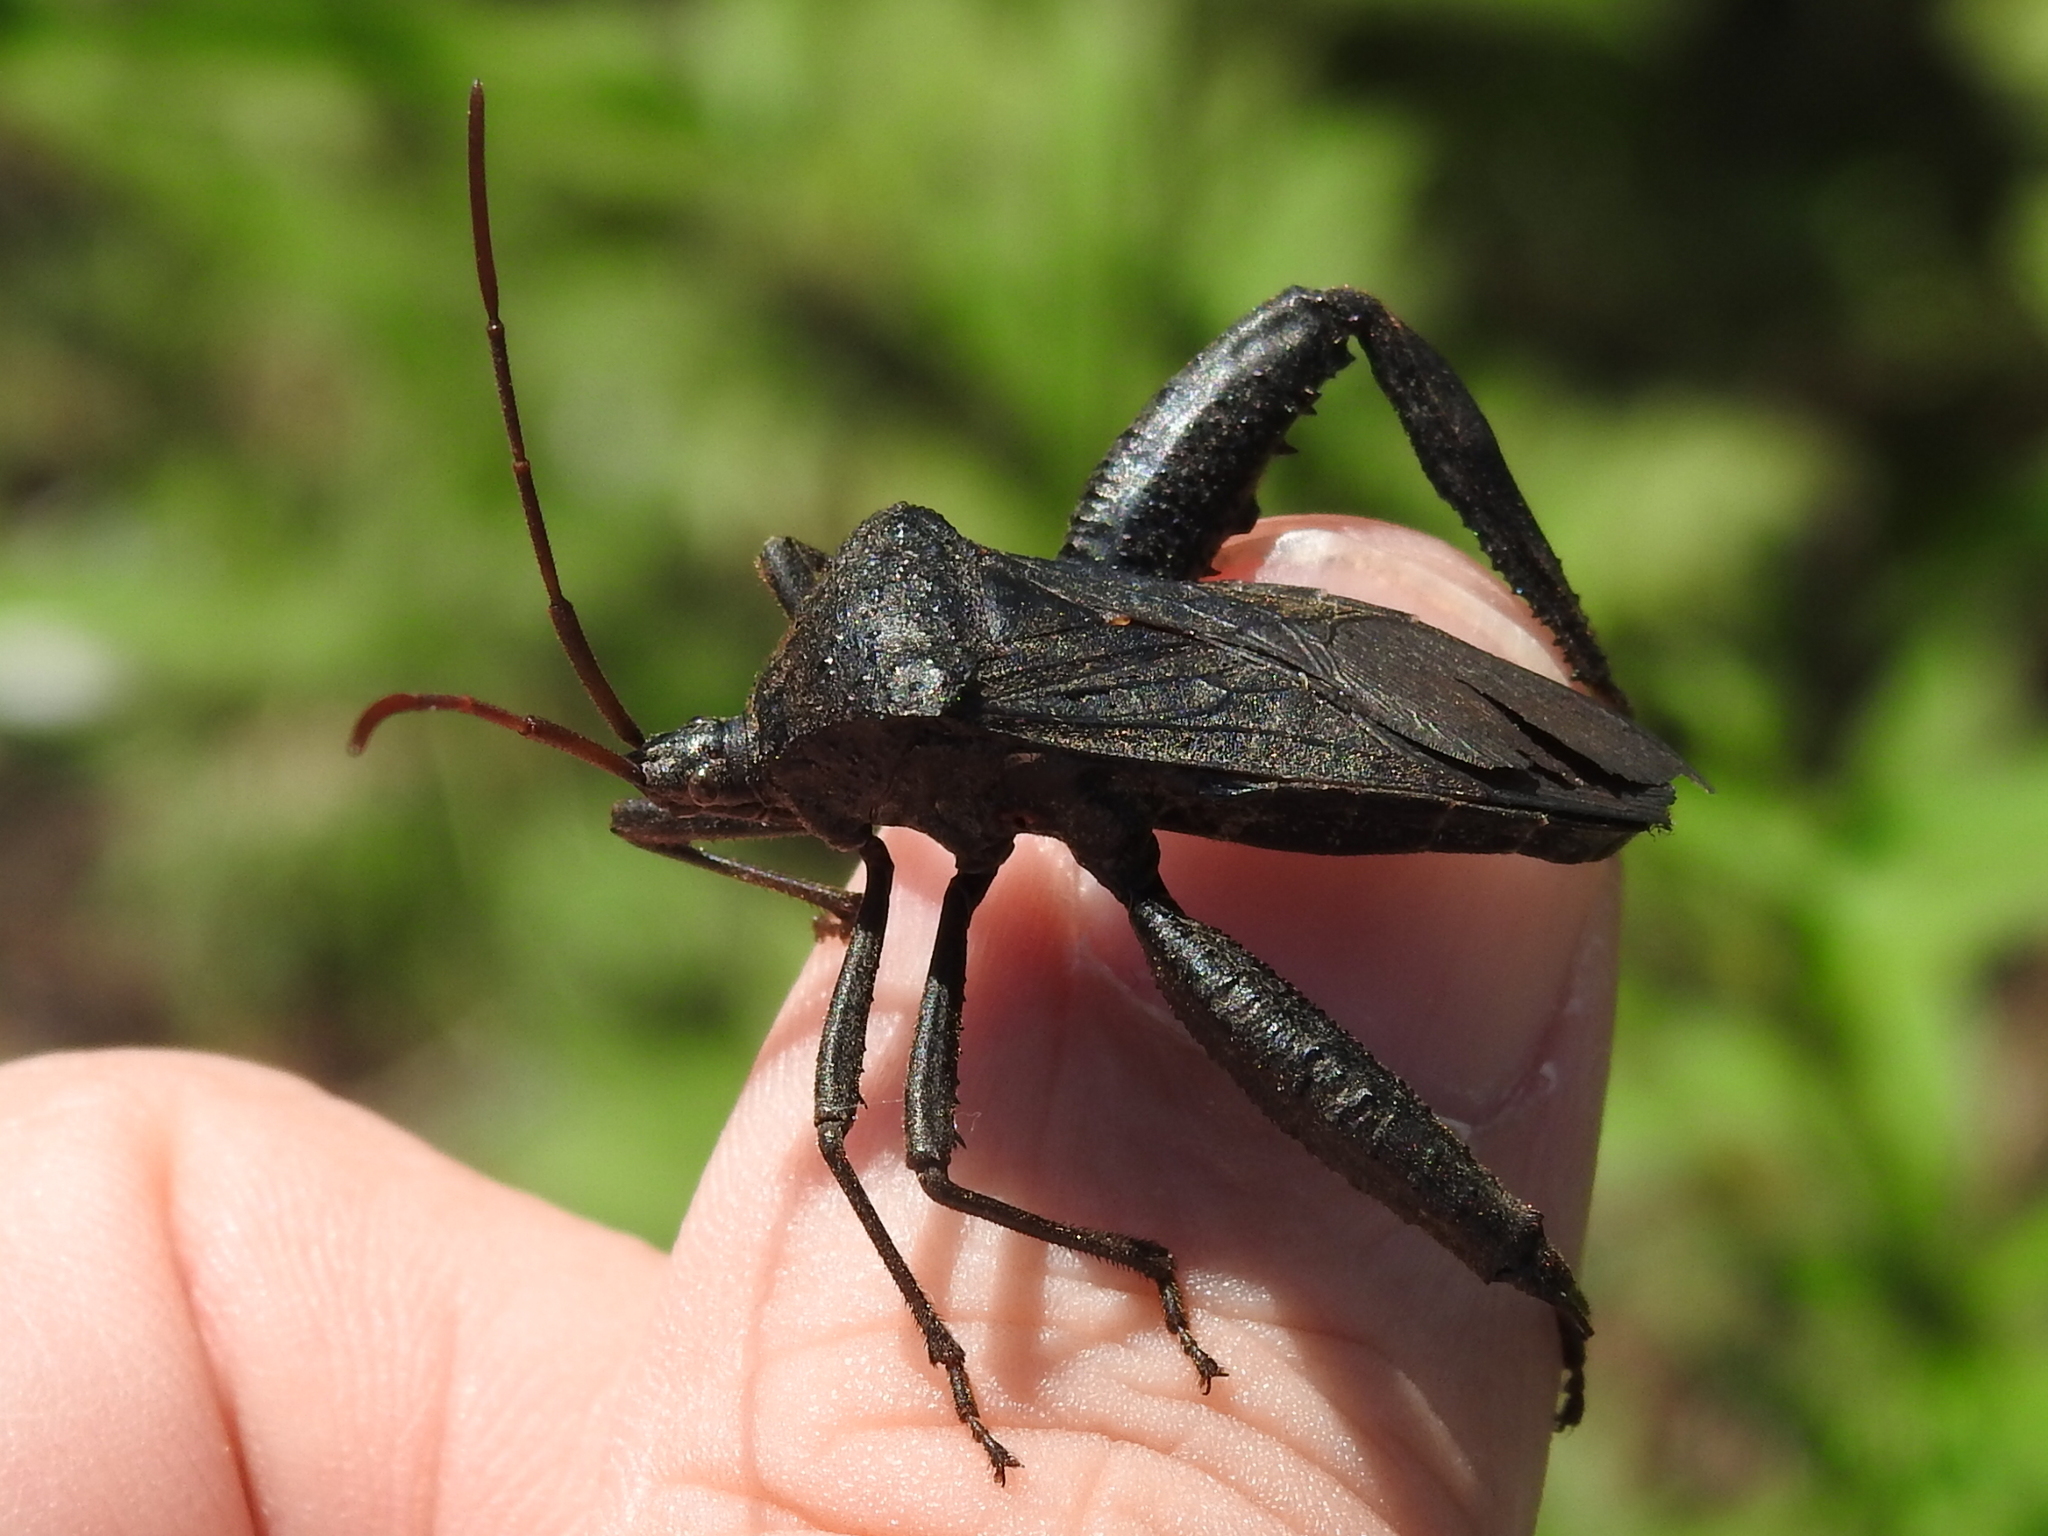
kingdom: Animalia
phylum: Arthropoda
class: Insecta
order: Hemiptera
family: Coreidae
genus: Acanthocephala
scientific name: Acanthocephala femorata
